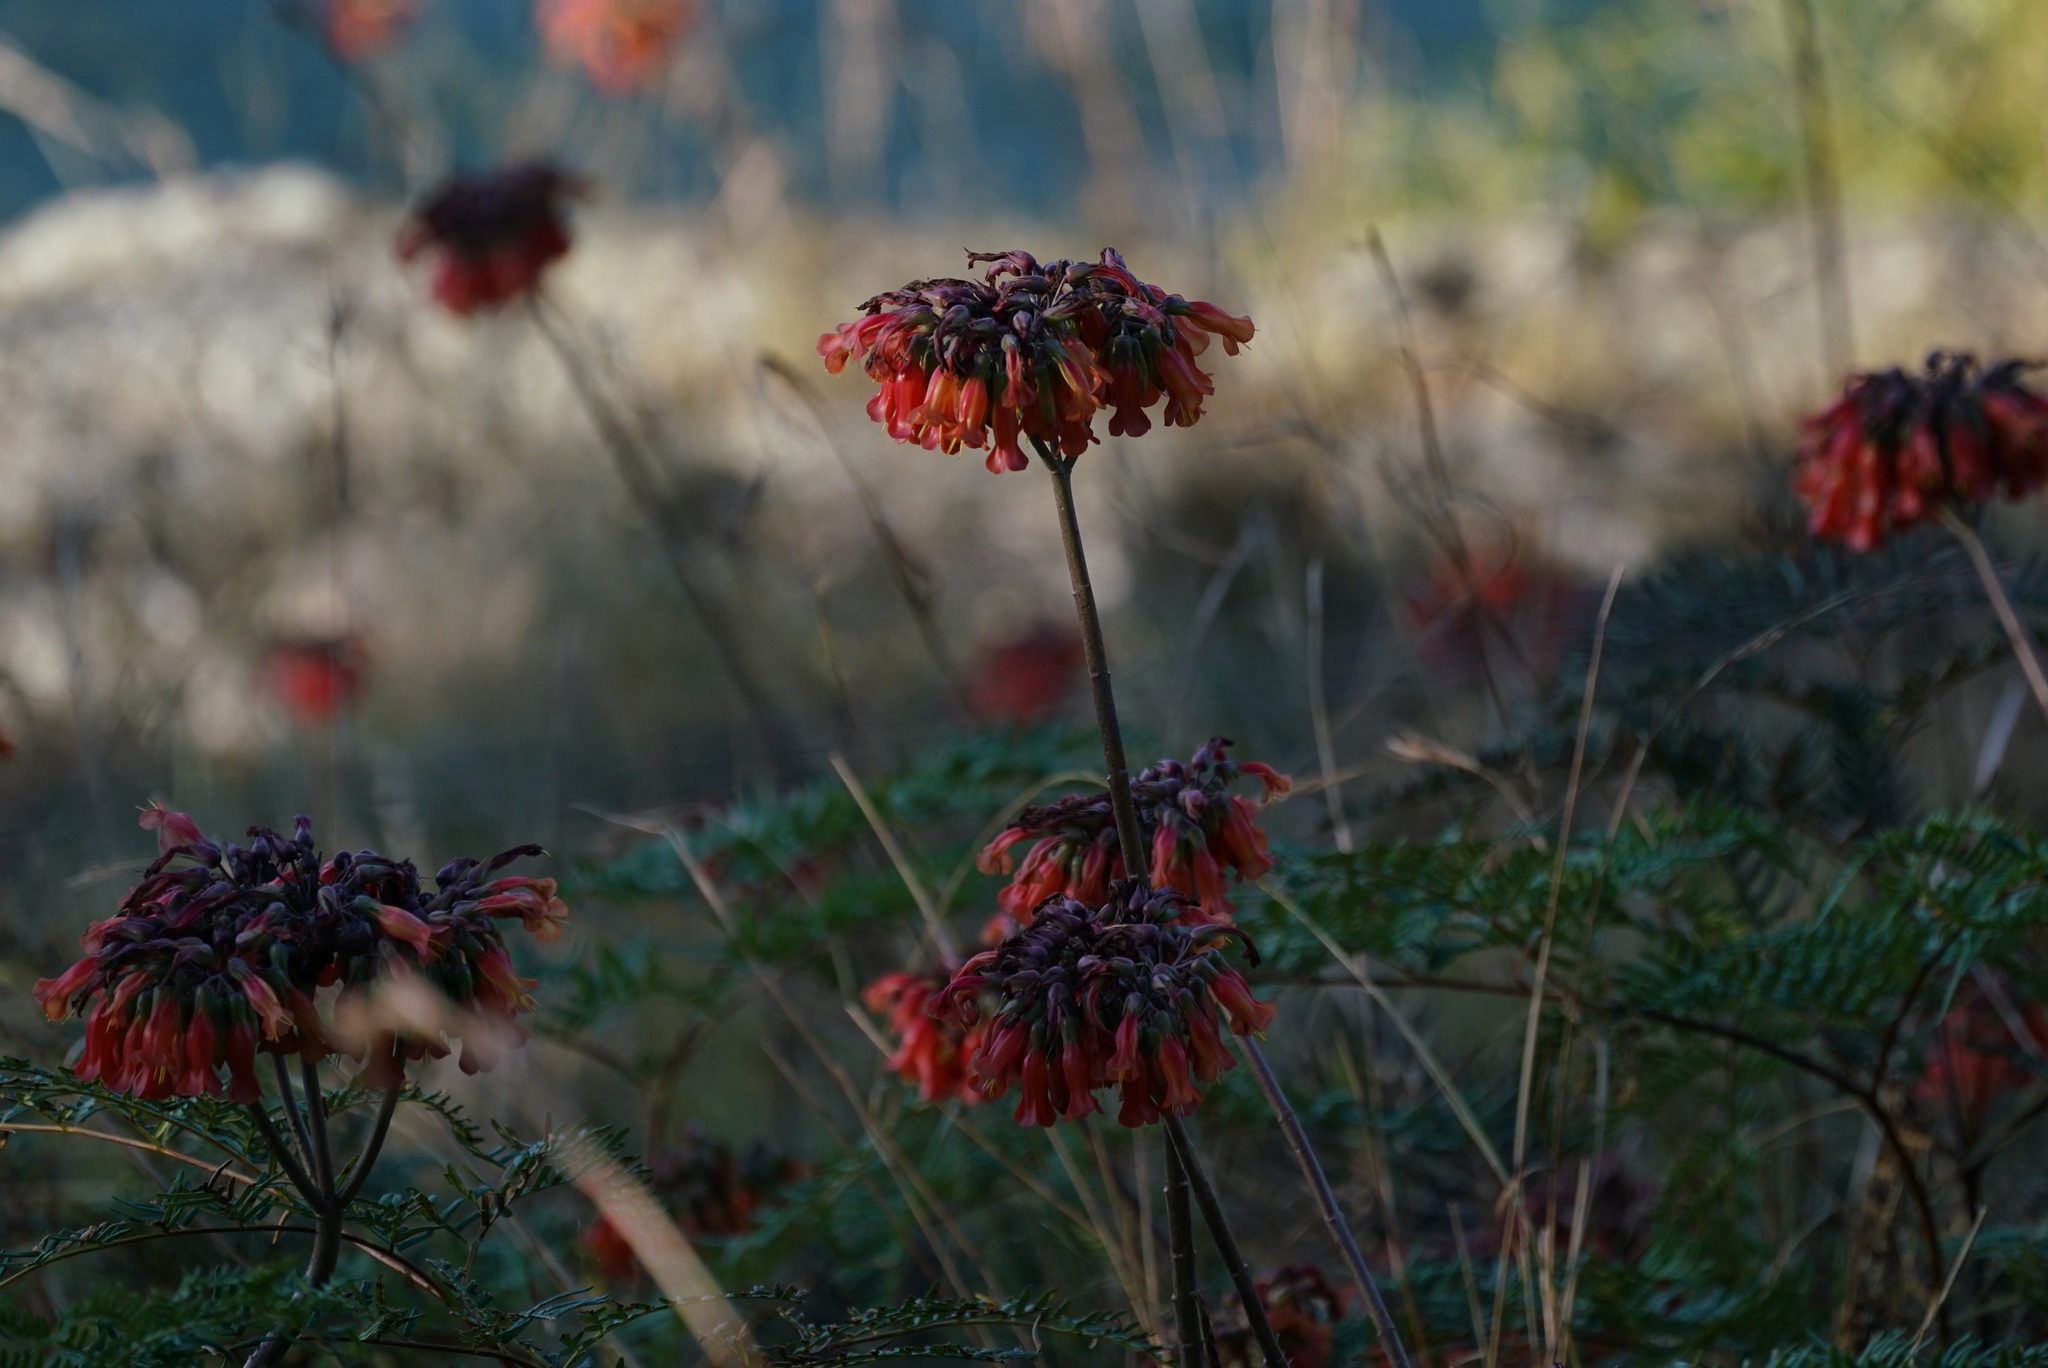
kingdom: Chromista
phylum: Ciliophora
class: Gymnostomatea
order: Spathidiida
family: Spathidiidae
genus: Bryophyllum
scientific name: Bryophyllum
